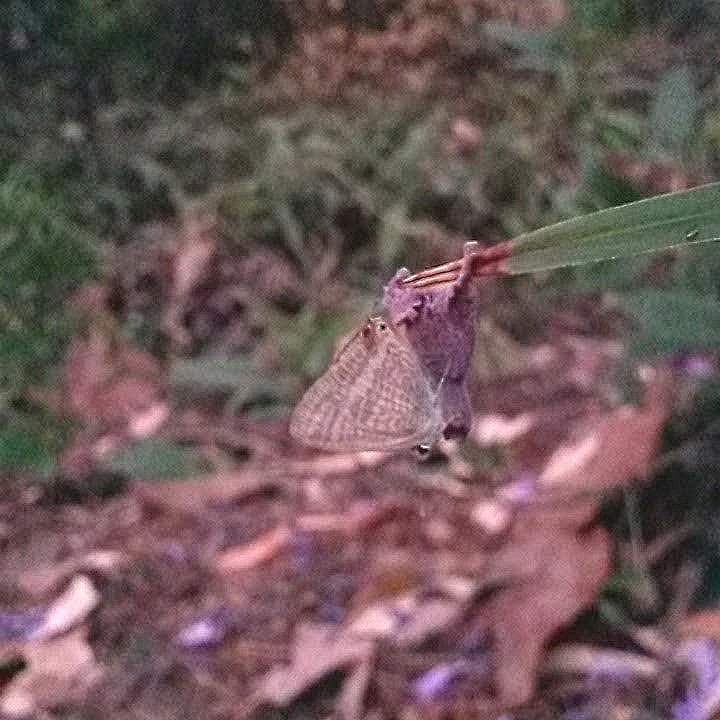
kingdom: Animalia
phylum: Arthropoda
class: Insecta
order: Lepidoptera
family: Lycaenidae
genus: Lampides
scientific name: Lampides boeticus
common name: Long-tailed blue
